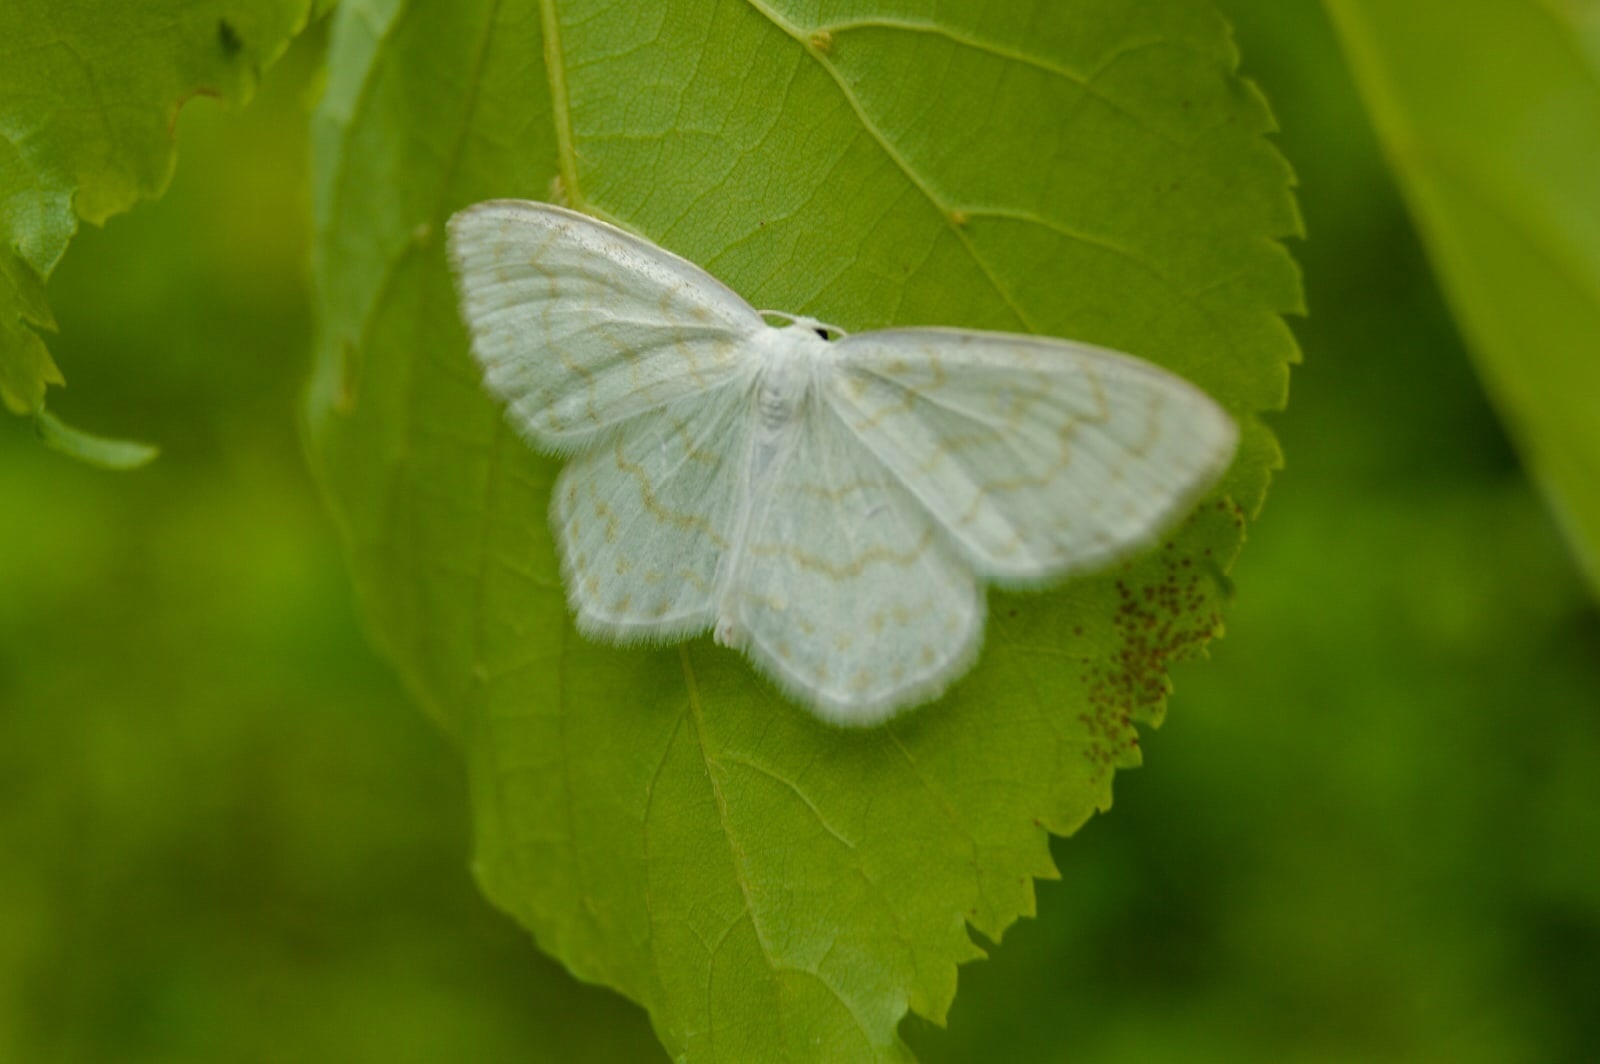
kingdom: Animalia
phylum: Arthropoda
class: Insecta
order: Lepidoptera
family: Geometridae
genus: Scopula
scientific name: Scopula nemoraria
